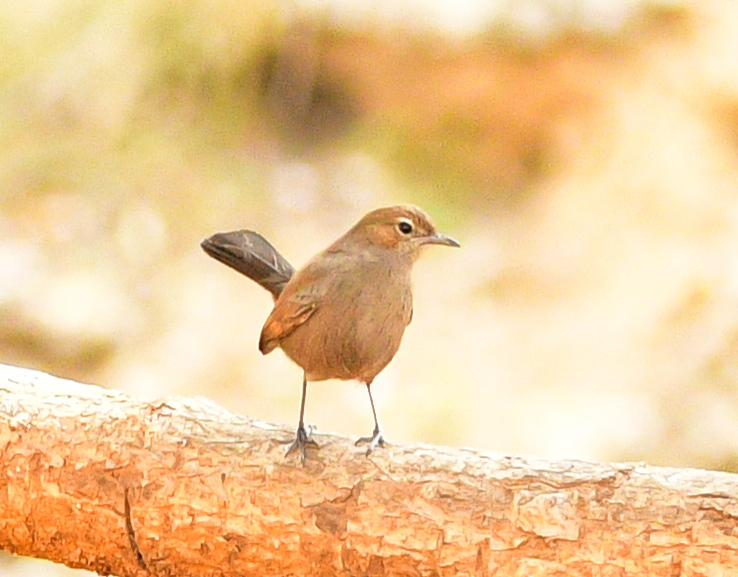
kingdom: Animalia
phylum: Chordata
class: Aves
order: Passeriformes
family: Muscicapidae
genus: Saxicoloides
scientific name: Saxicoloides fulicatus
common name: Indian robin
